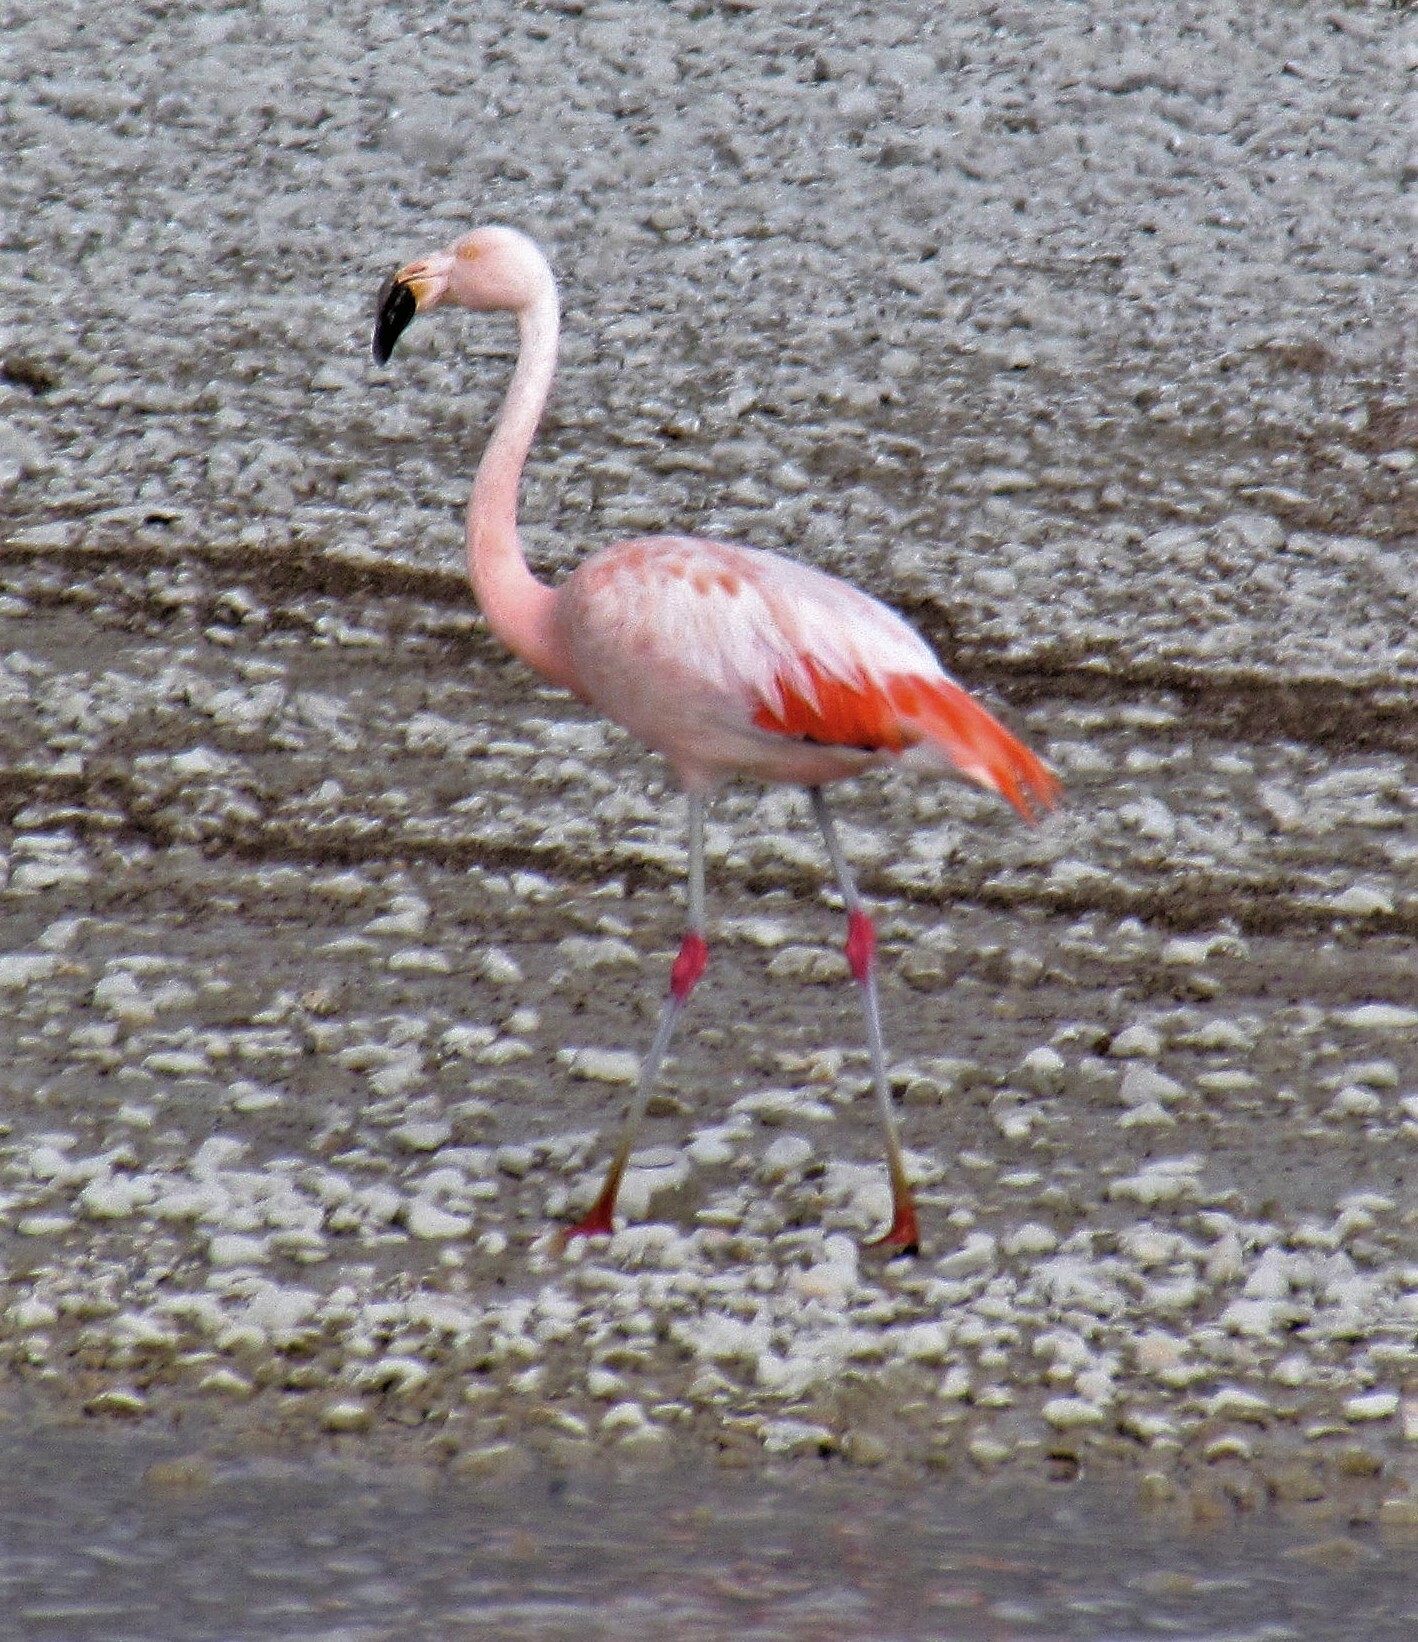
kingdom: Animalia
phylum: Chordata
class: Aves
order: Phoenicopteriformes
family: Phoenicopteridae
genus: Phoenicopterus
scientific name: Phoenicopterus chilensis
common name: Chilean flamingo
